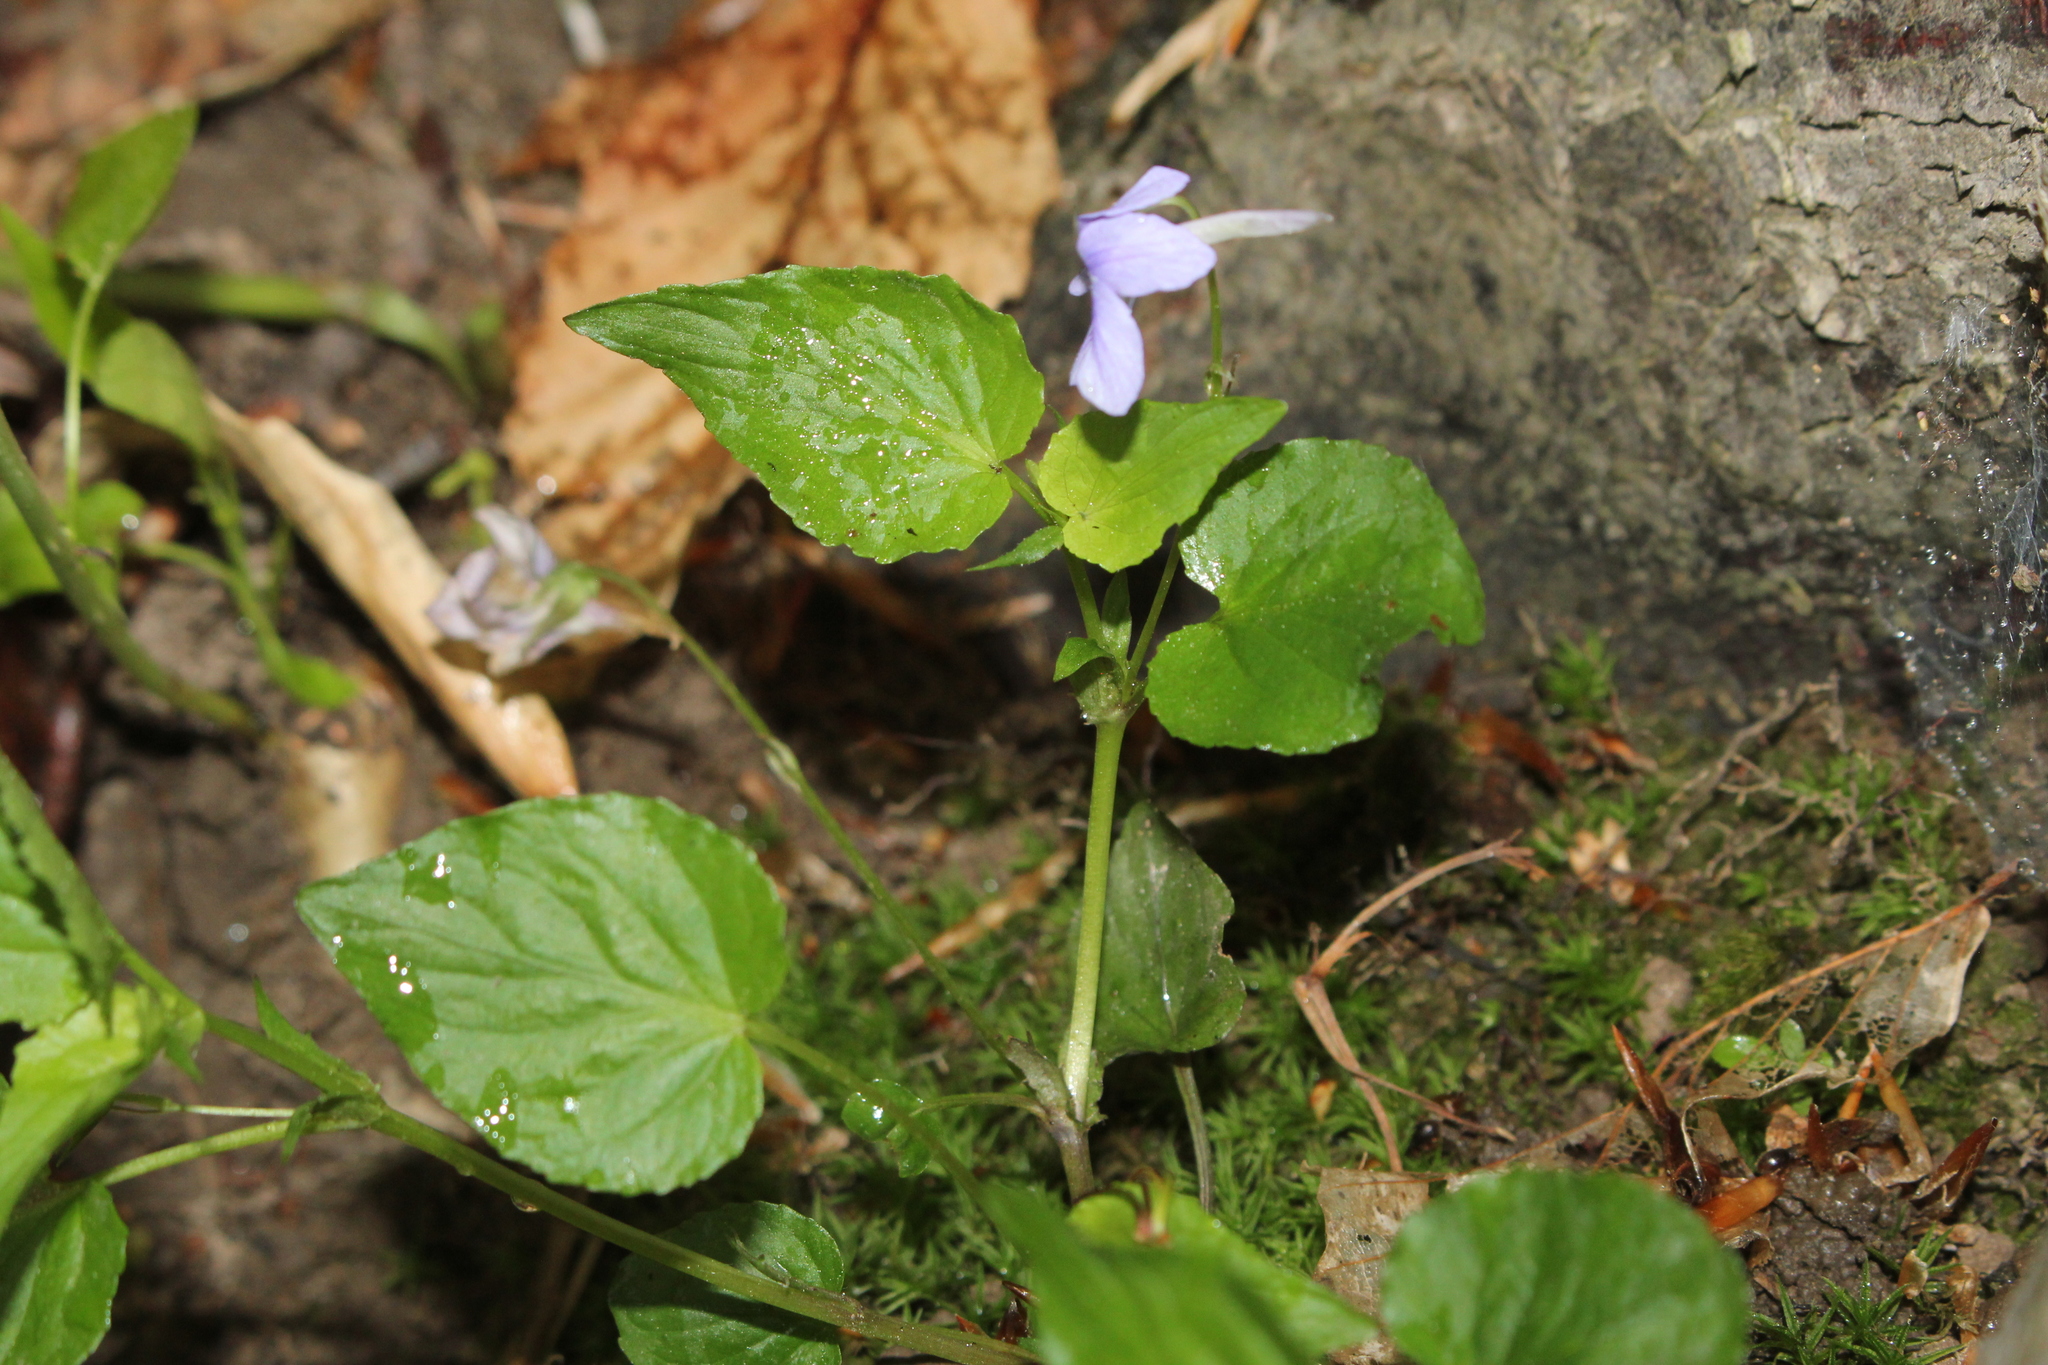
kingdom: Plantae
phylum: Tracheophyta
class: Magnoliopsida
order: Malpighiales
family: Violaceae
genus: Viola
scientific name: Viola rostrata
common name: Long-spur violet
